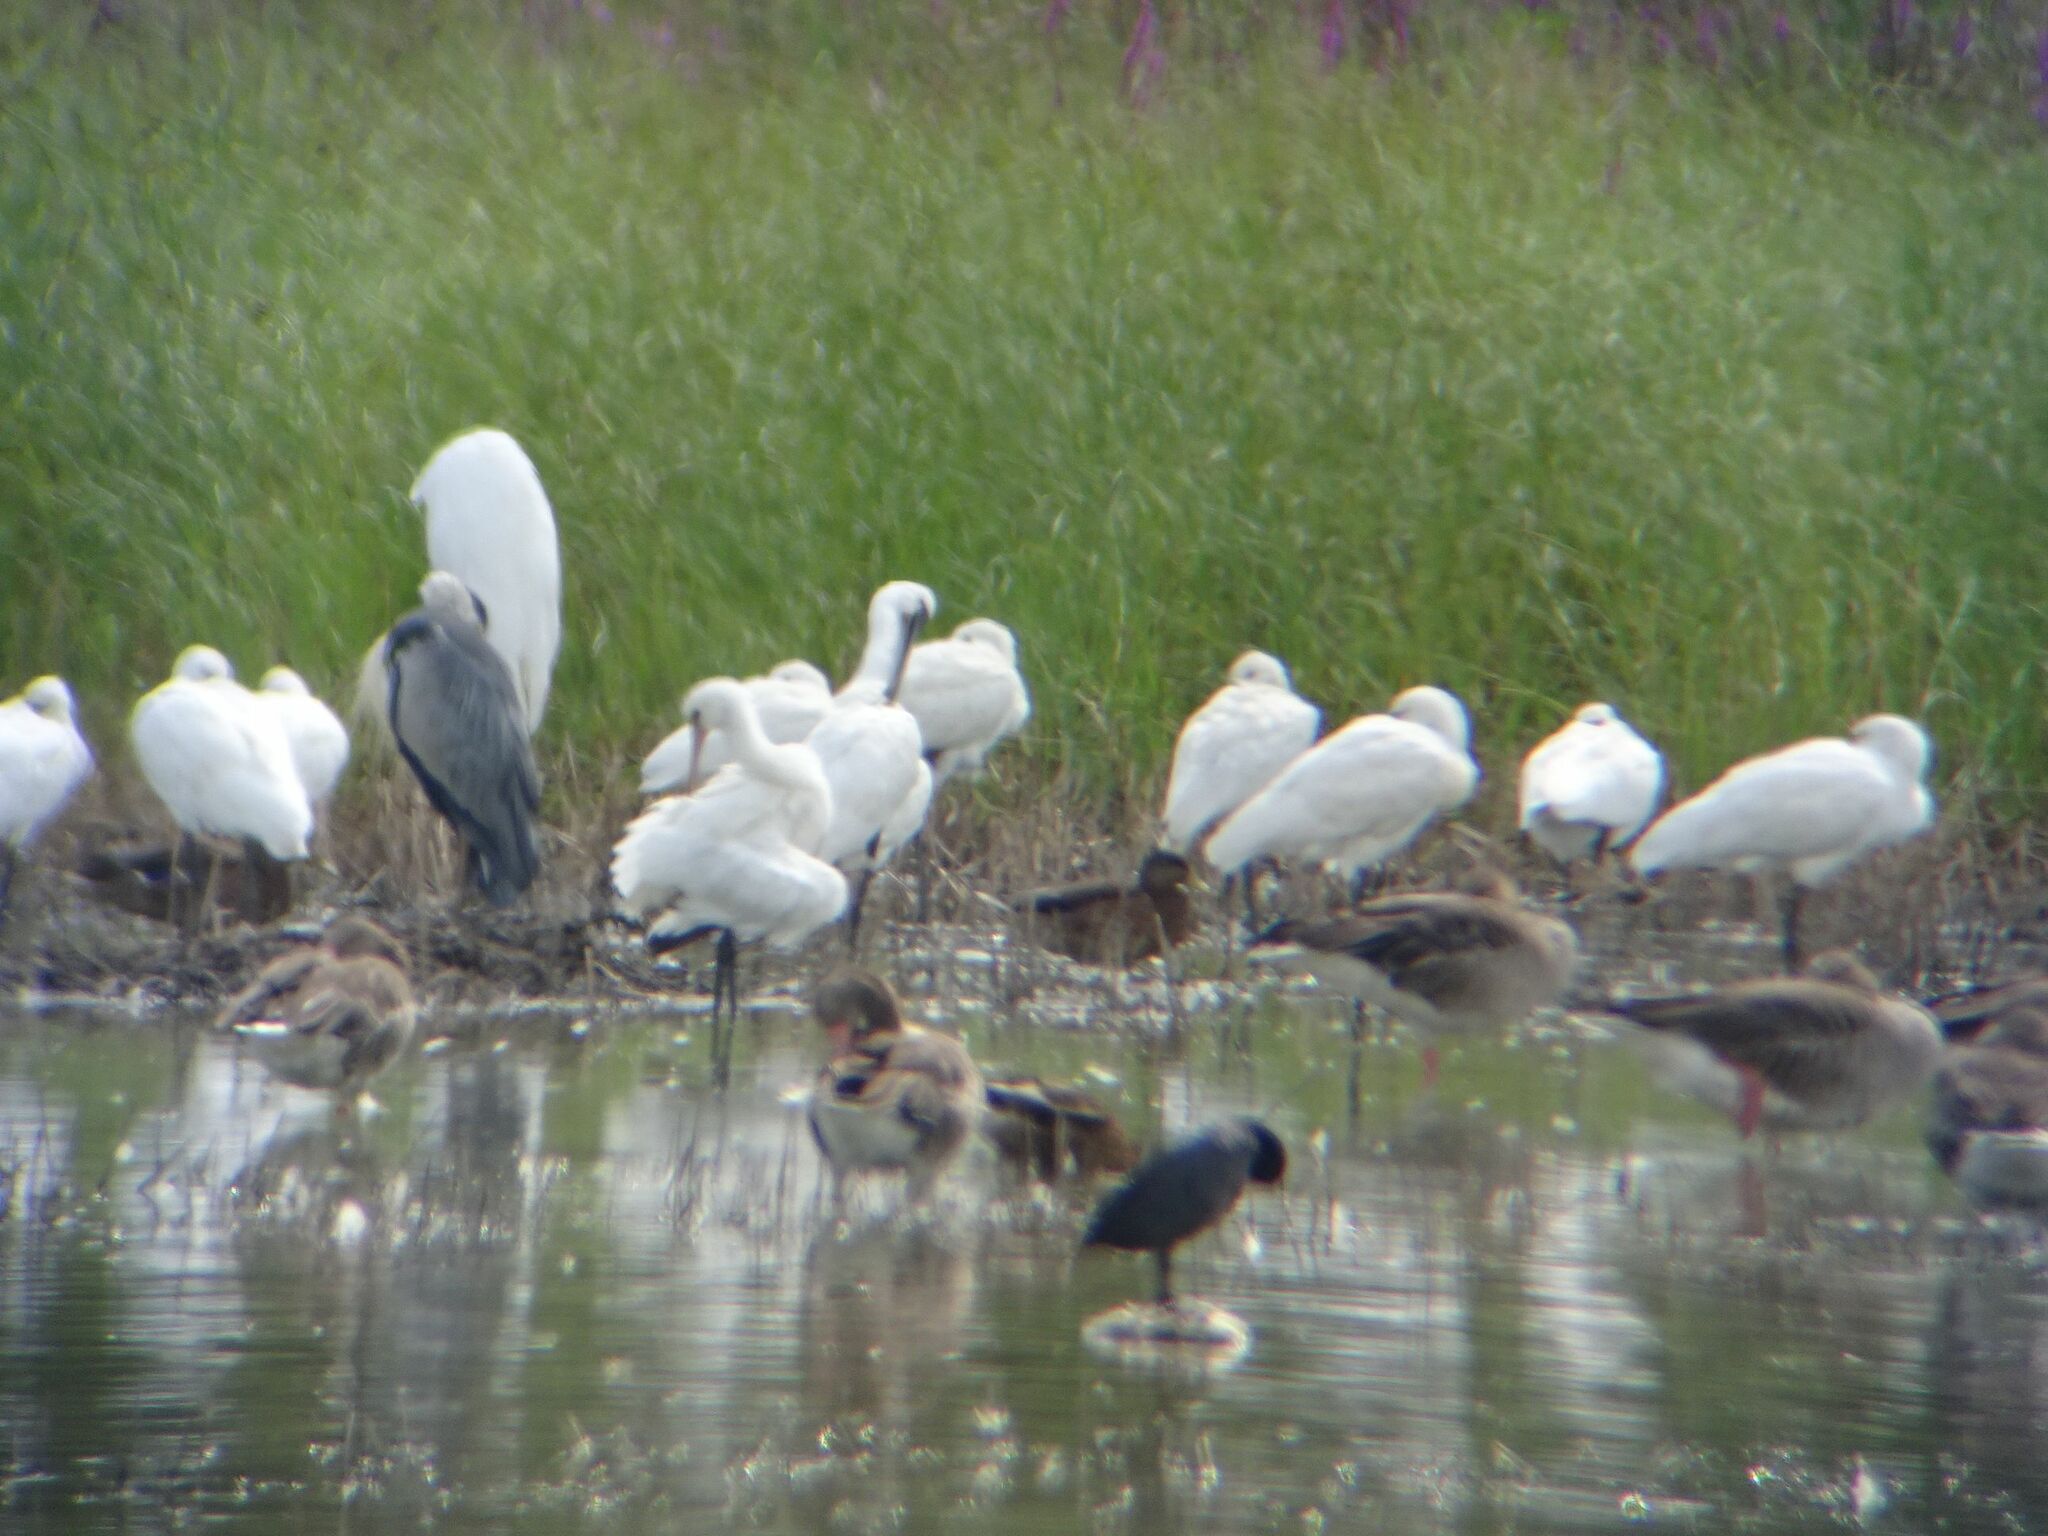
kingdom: Animalia
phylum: Chordata
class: Aves
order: Pelecaniformes
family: Threskiornithidae
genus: Platalea
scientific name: Platalea leucorodia
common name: Eurasian spoonbill
